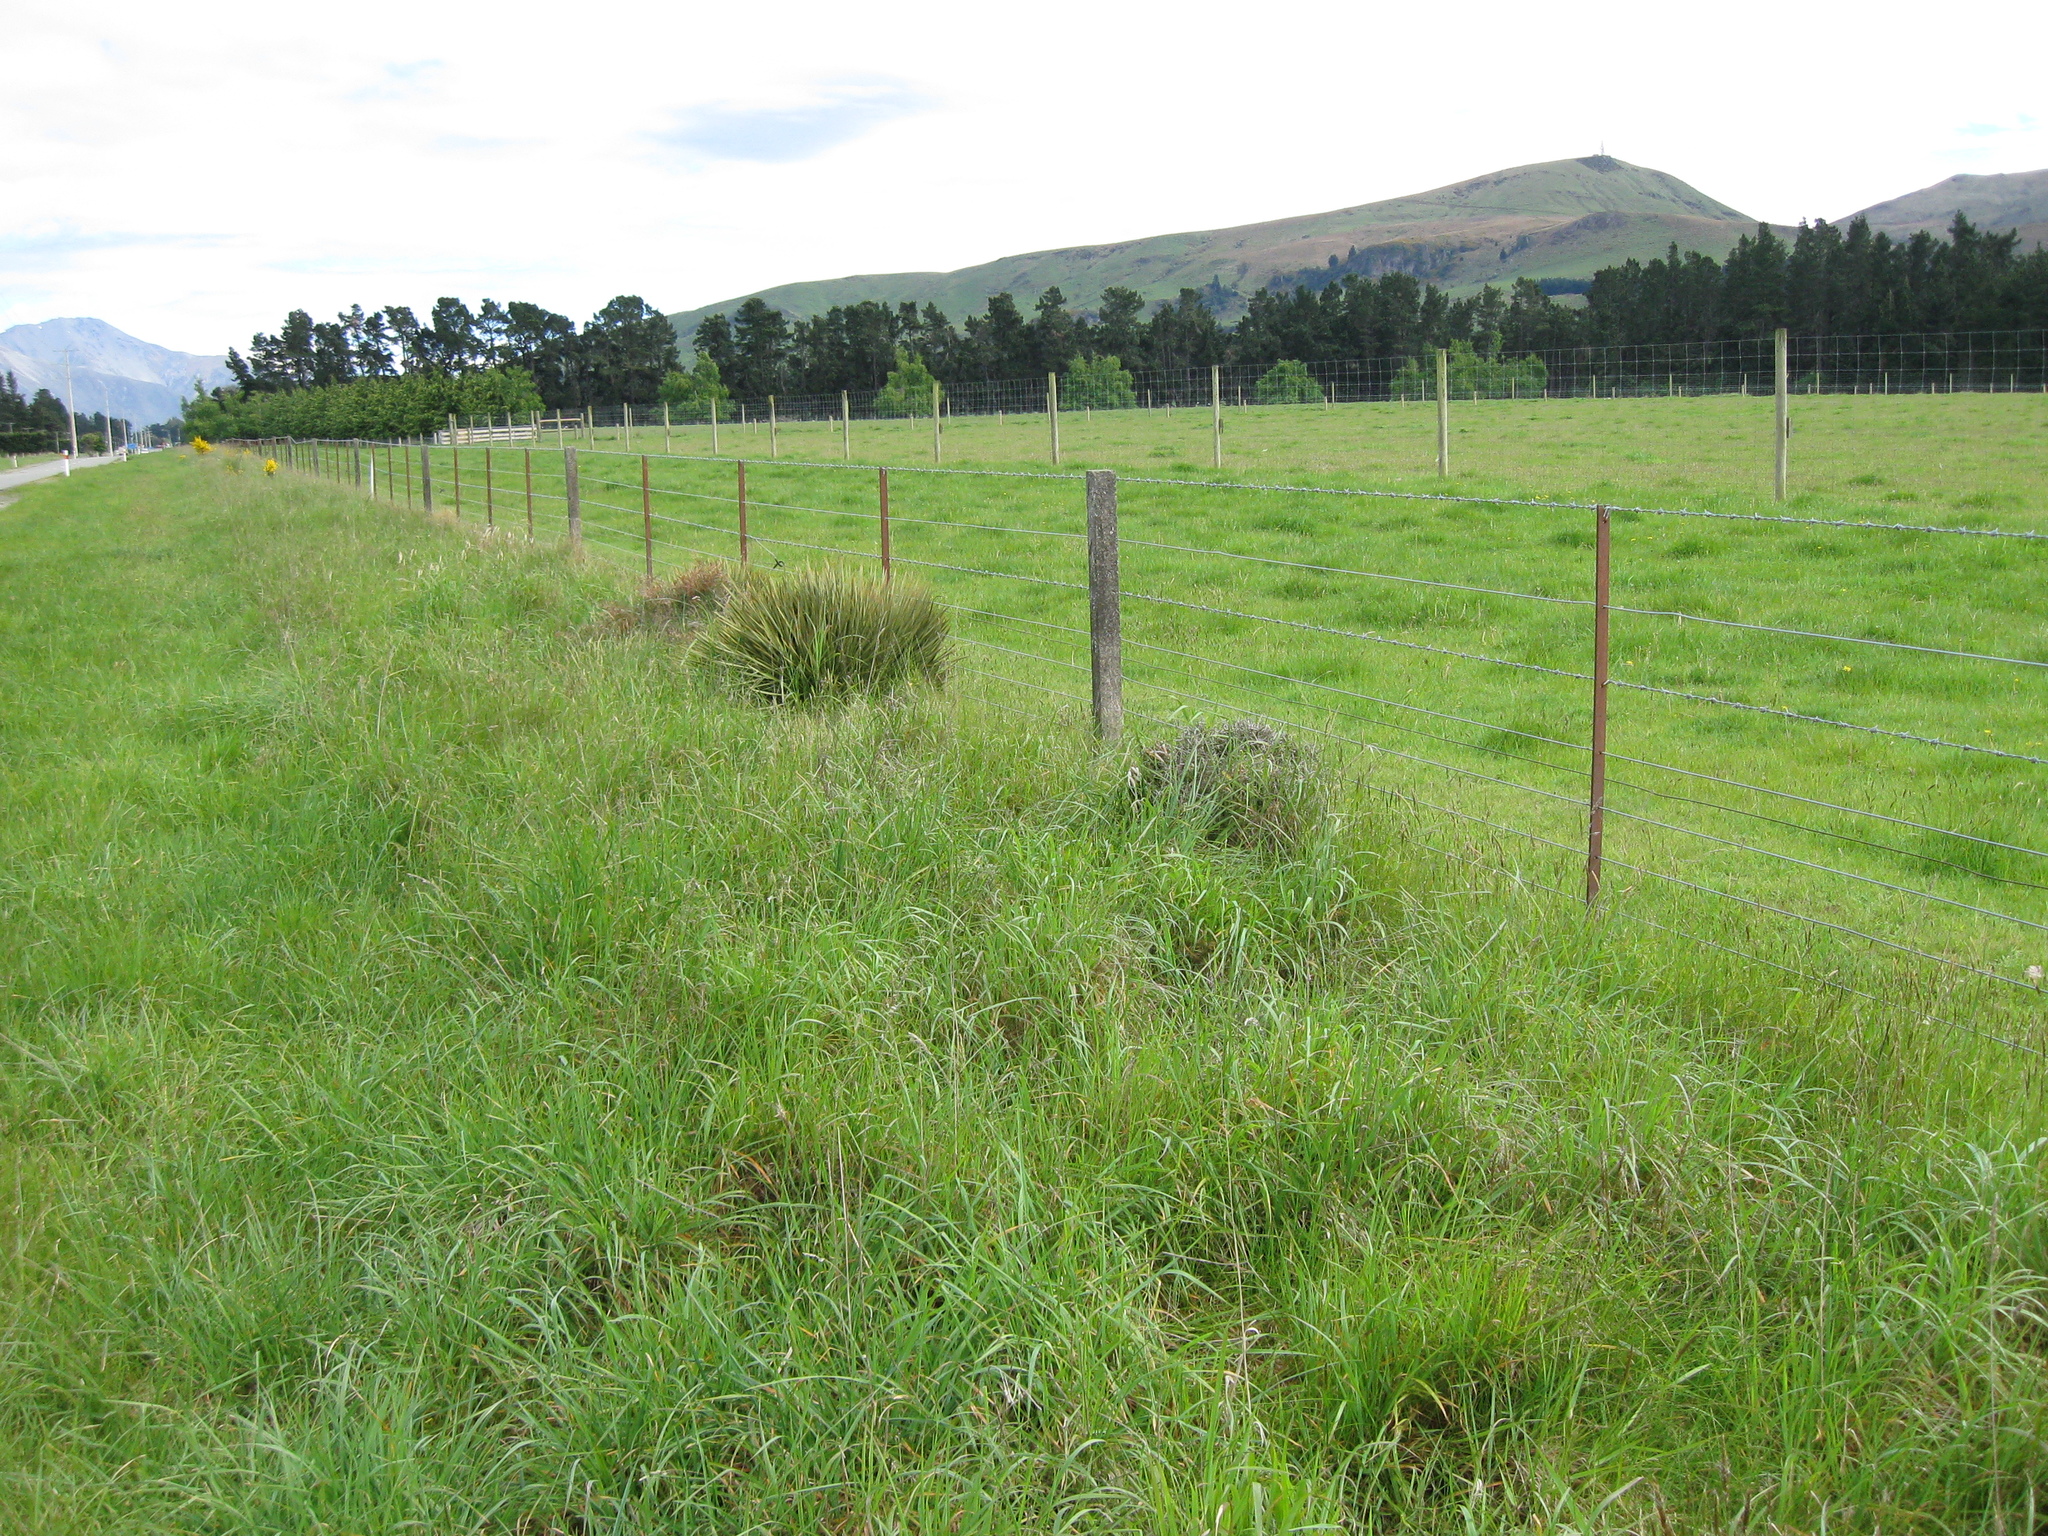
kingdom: Plantae
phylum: Tracheophyta
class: Magnoliopsida
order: Apiales
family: Apiaceae
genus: Aciphylla
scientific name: Aciphylla aurea
